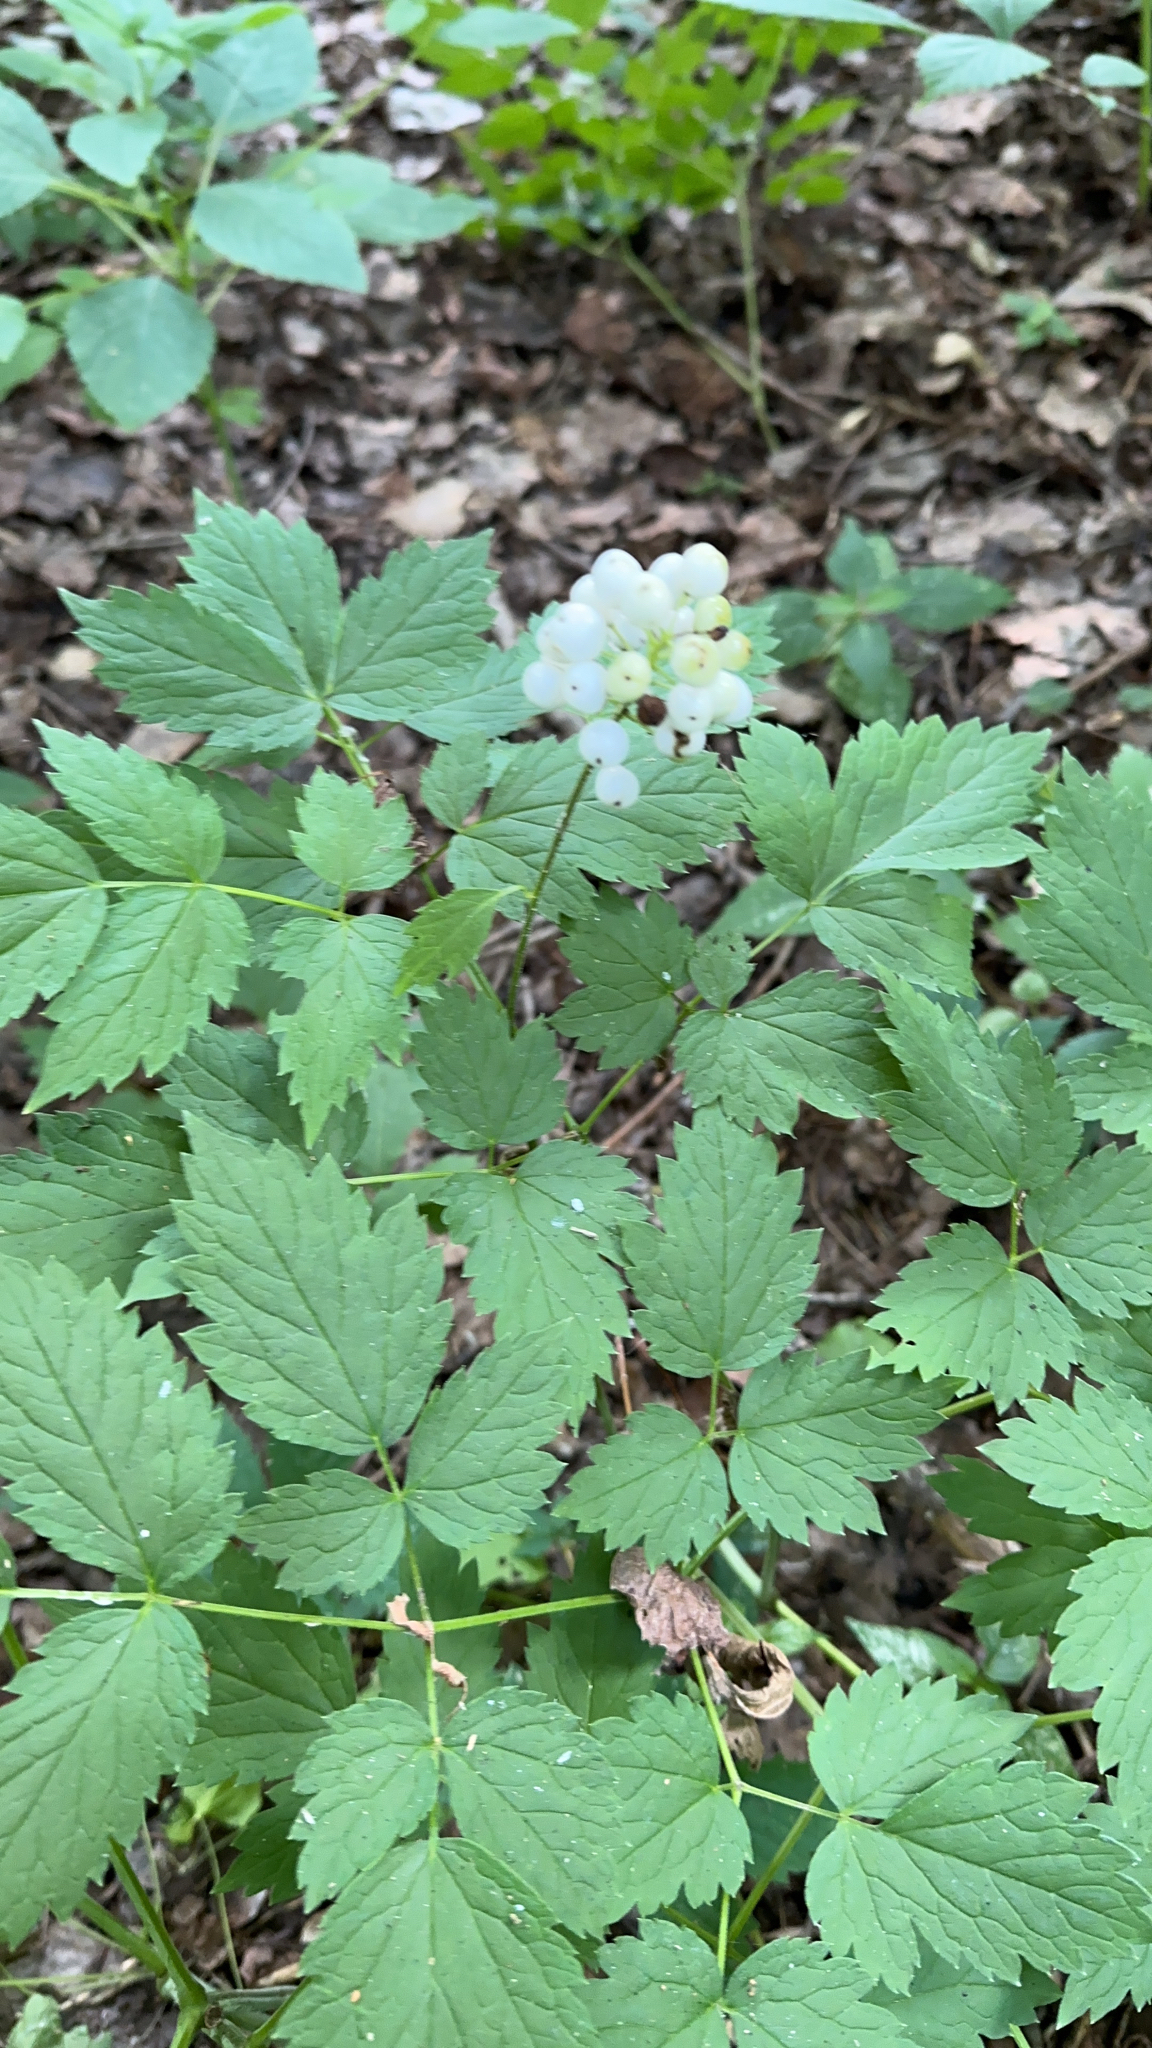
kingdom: Plantae
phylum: Tracheophyta
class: Magnoliopsida
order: Ranunculales
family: Ranunculaceae
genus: Actaea
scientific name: Actaea rubra
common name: Red baneberry
